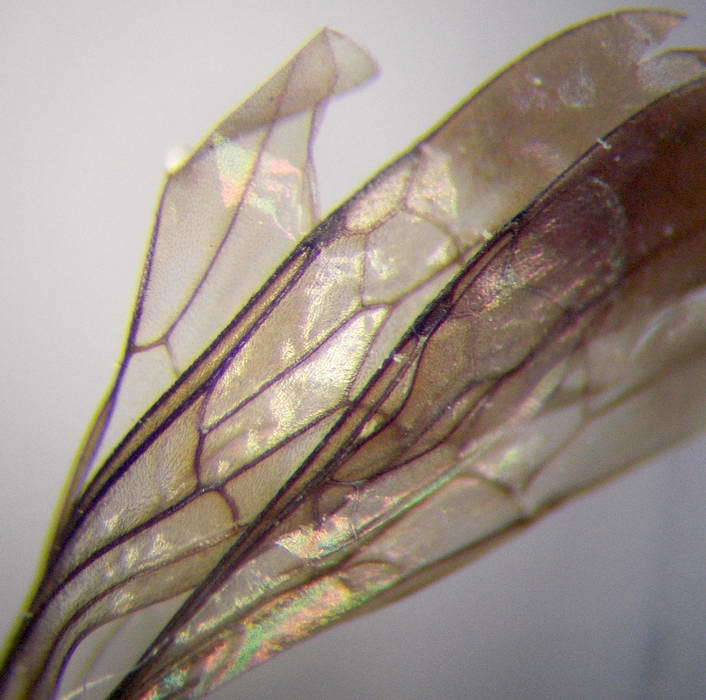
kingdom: Animalia
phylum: Arthropoda
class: Insecta
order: Hymenoptera
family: Pompilidae
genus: Tachyagetes
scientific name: Tachyagetes filicornis
